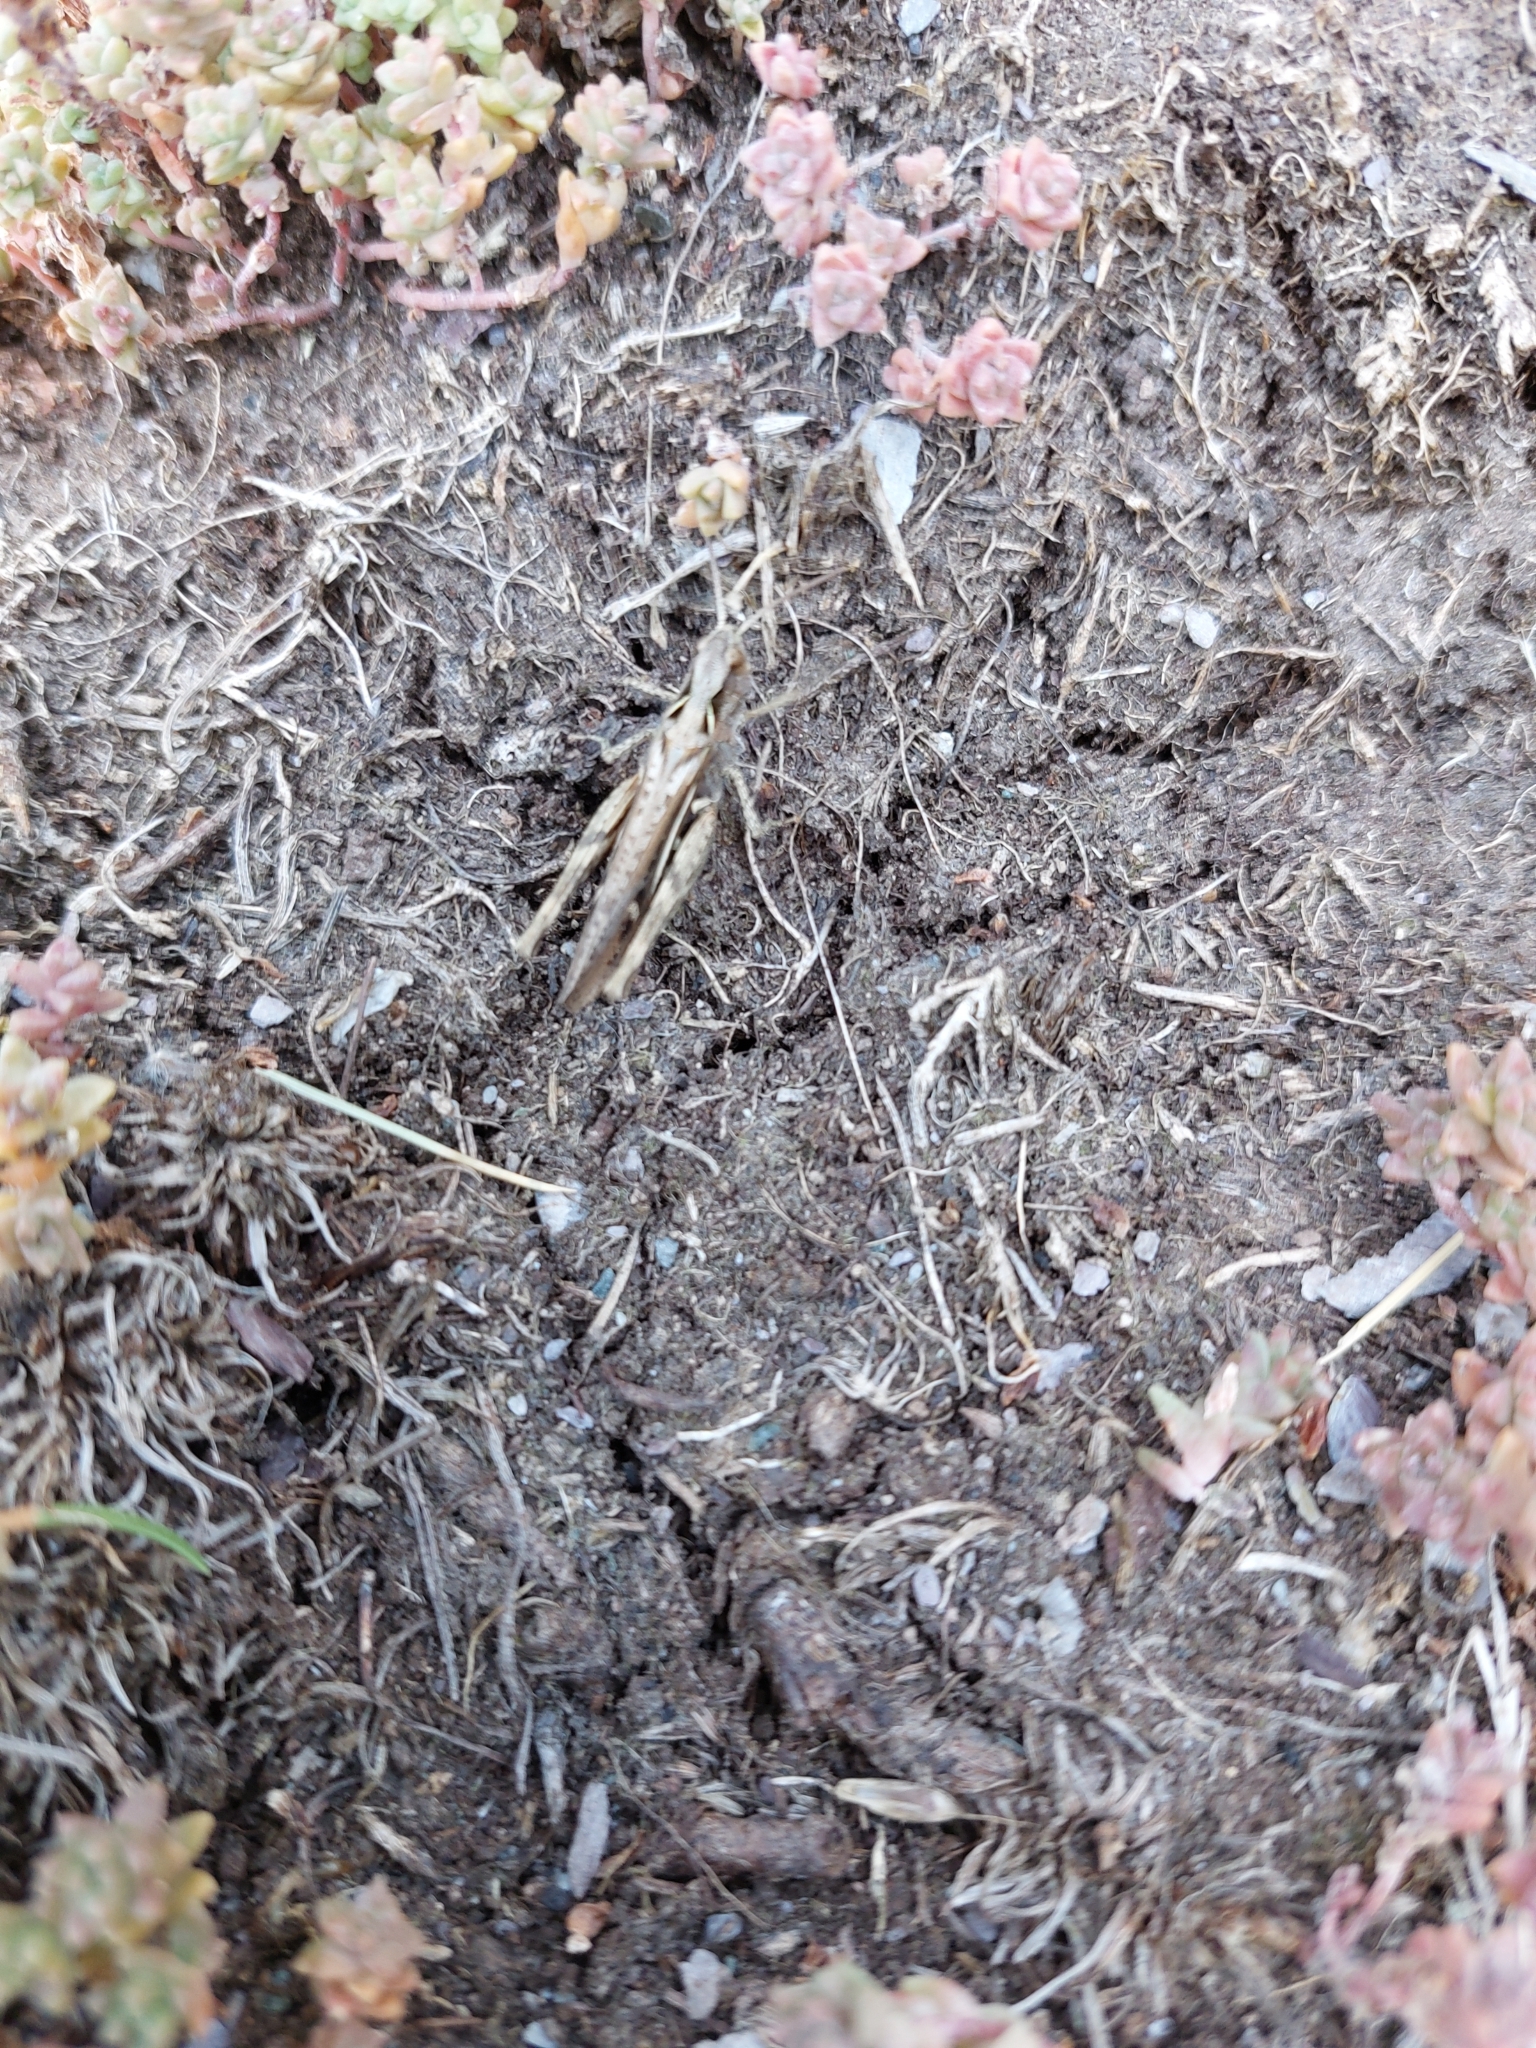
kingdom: Plantae
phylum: Tracheophyta
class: Magnoliopsida
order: Saxifragales
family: Crassulaceae
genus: Sedum
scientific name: Sedum anglicum
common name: English stonecrop
